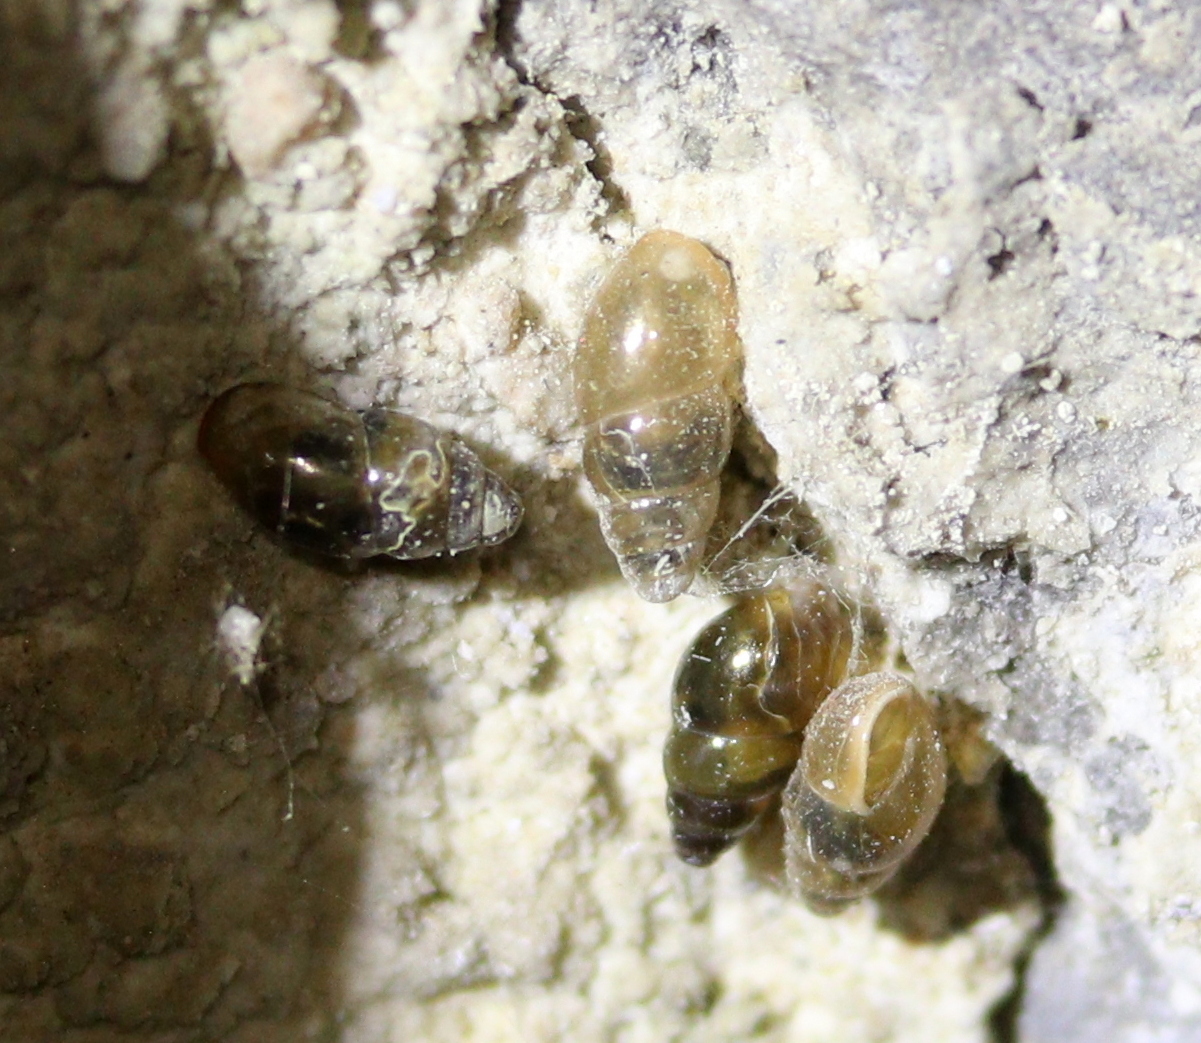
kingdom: Animalia
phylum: Mollusca
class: Gastropoda
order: Stylommatophora
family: Cochlicopidae
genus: Cochlicopa
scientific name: Cochlicopa lubrica
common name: Glossy pillar snail
